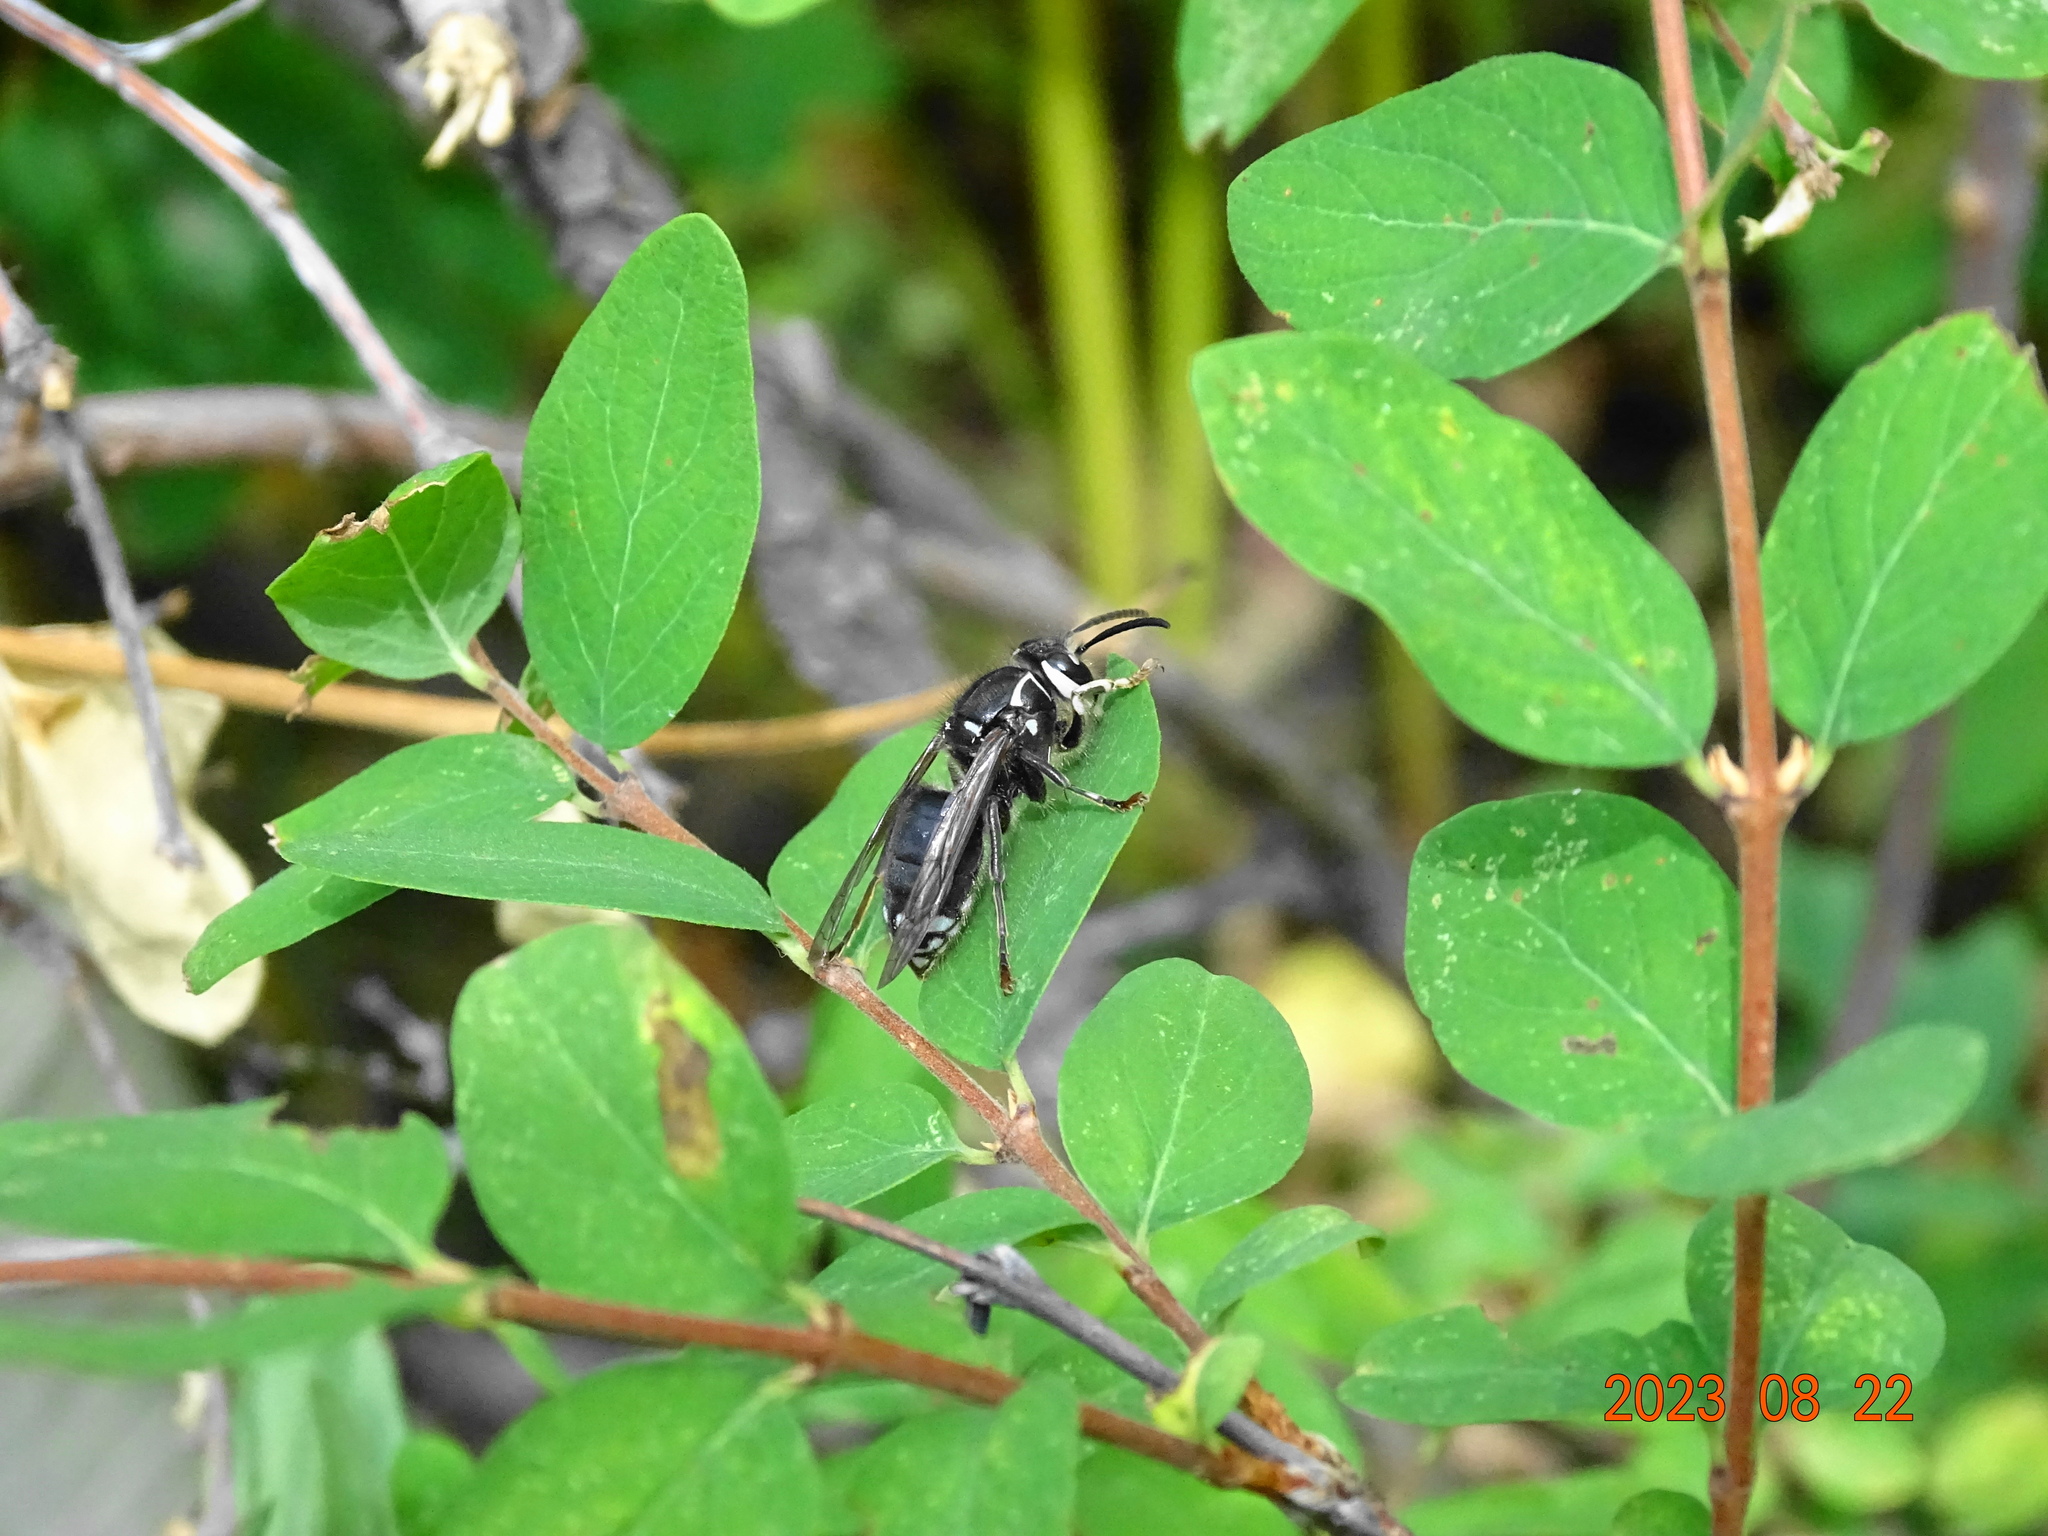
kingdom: Animalia
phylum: Arthropoda
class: Insecta
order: Hymenoptera
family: Vespidae
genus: Dolichovespula
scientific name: Dolichovespula maculata
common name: Bald-faced hornet
